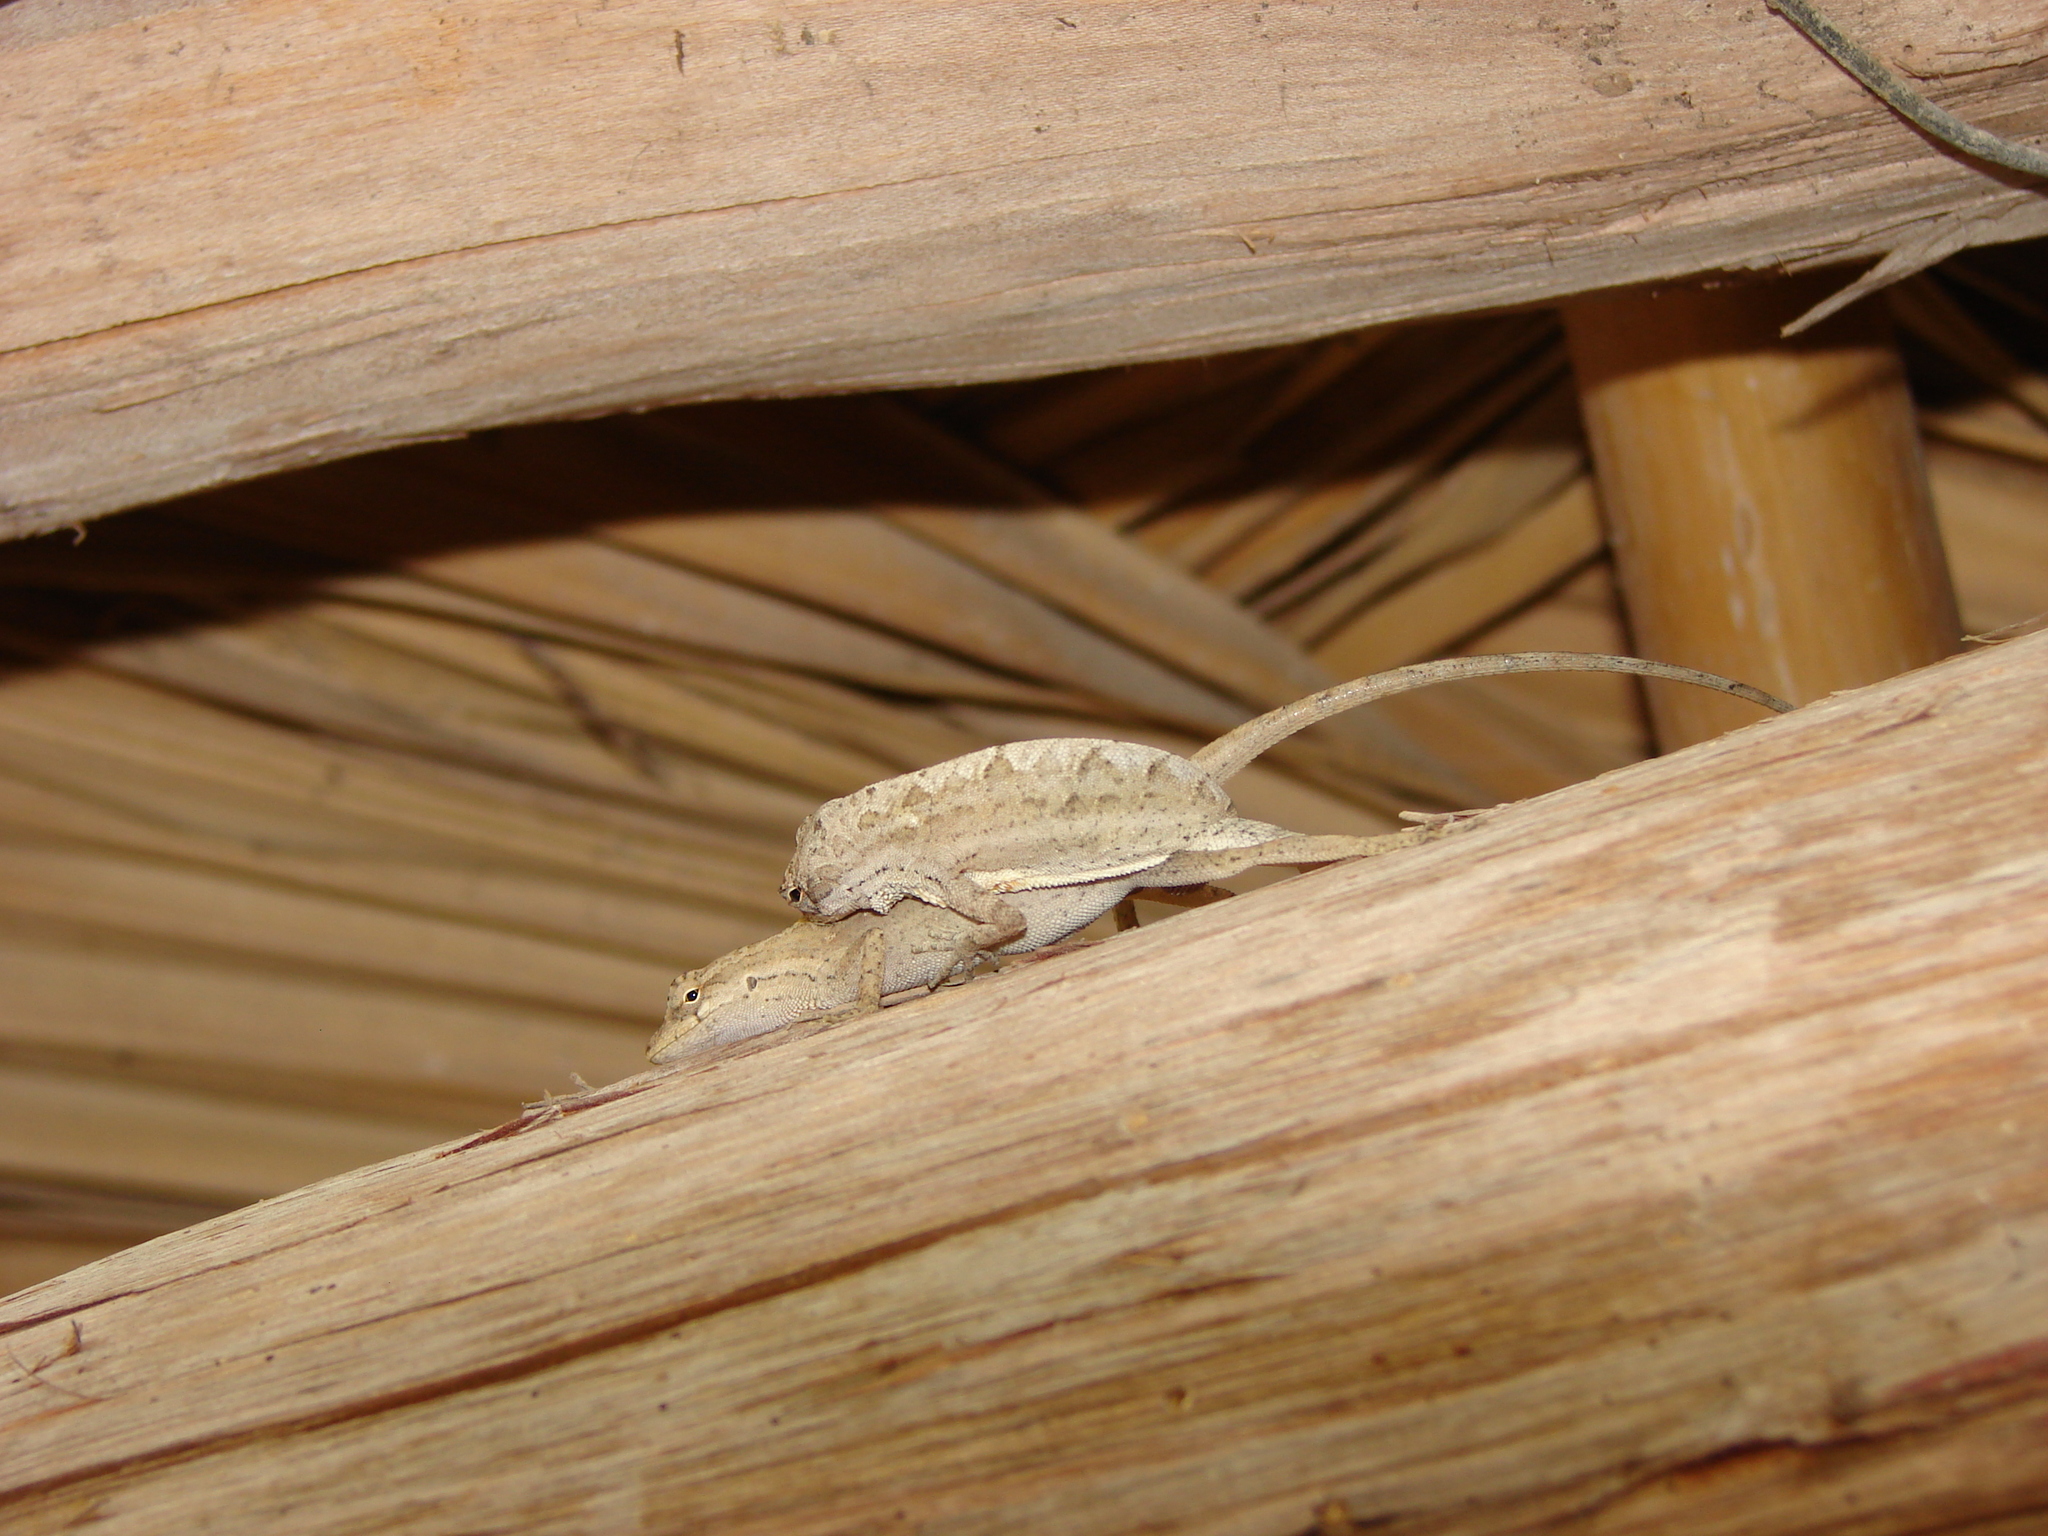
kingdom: Animalia
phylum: Chordata
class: Squamata
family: Dactyloidae
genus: Anolis
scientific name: Anolis nebulosus
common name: Clouded anole
